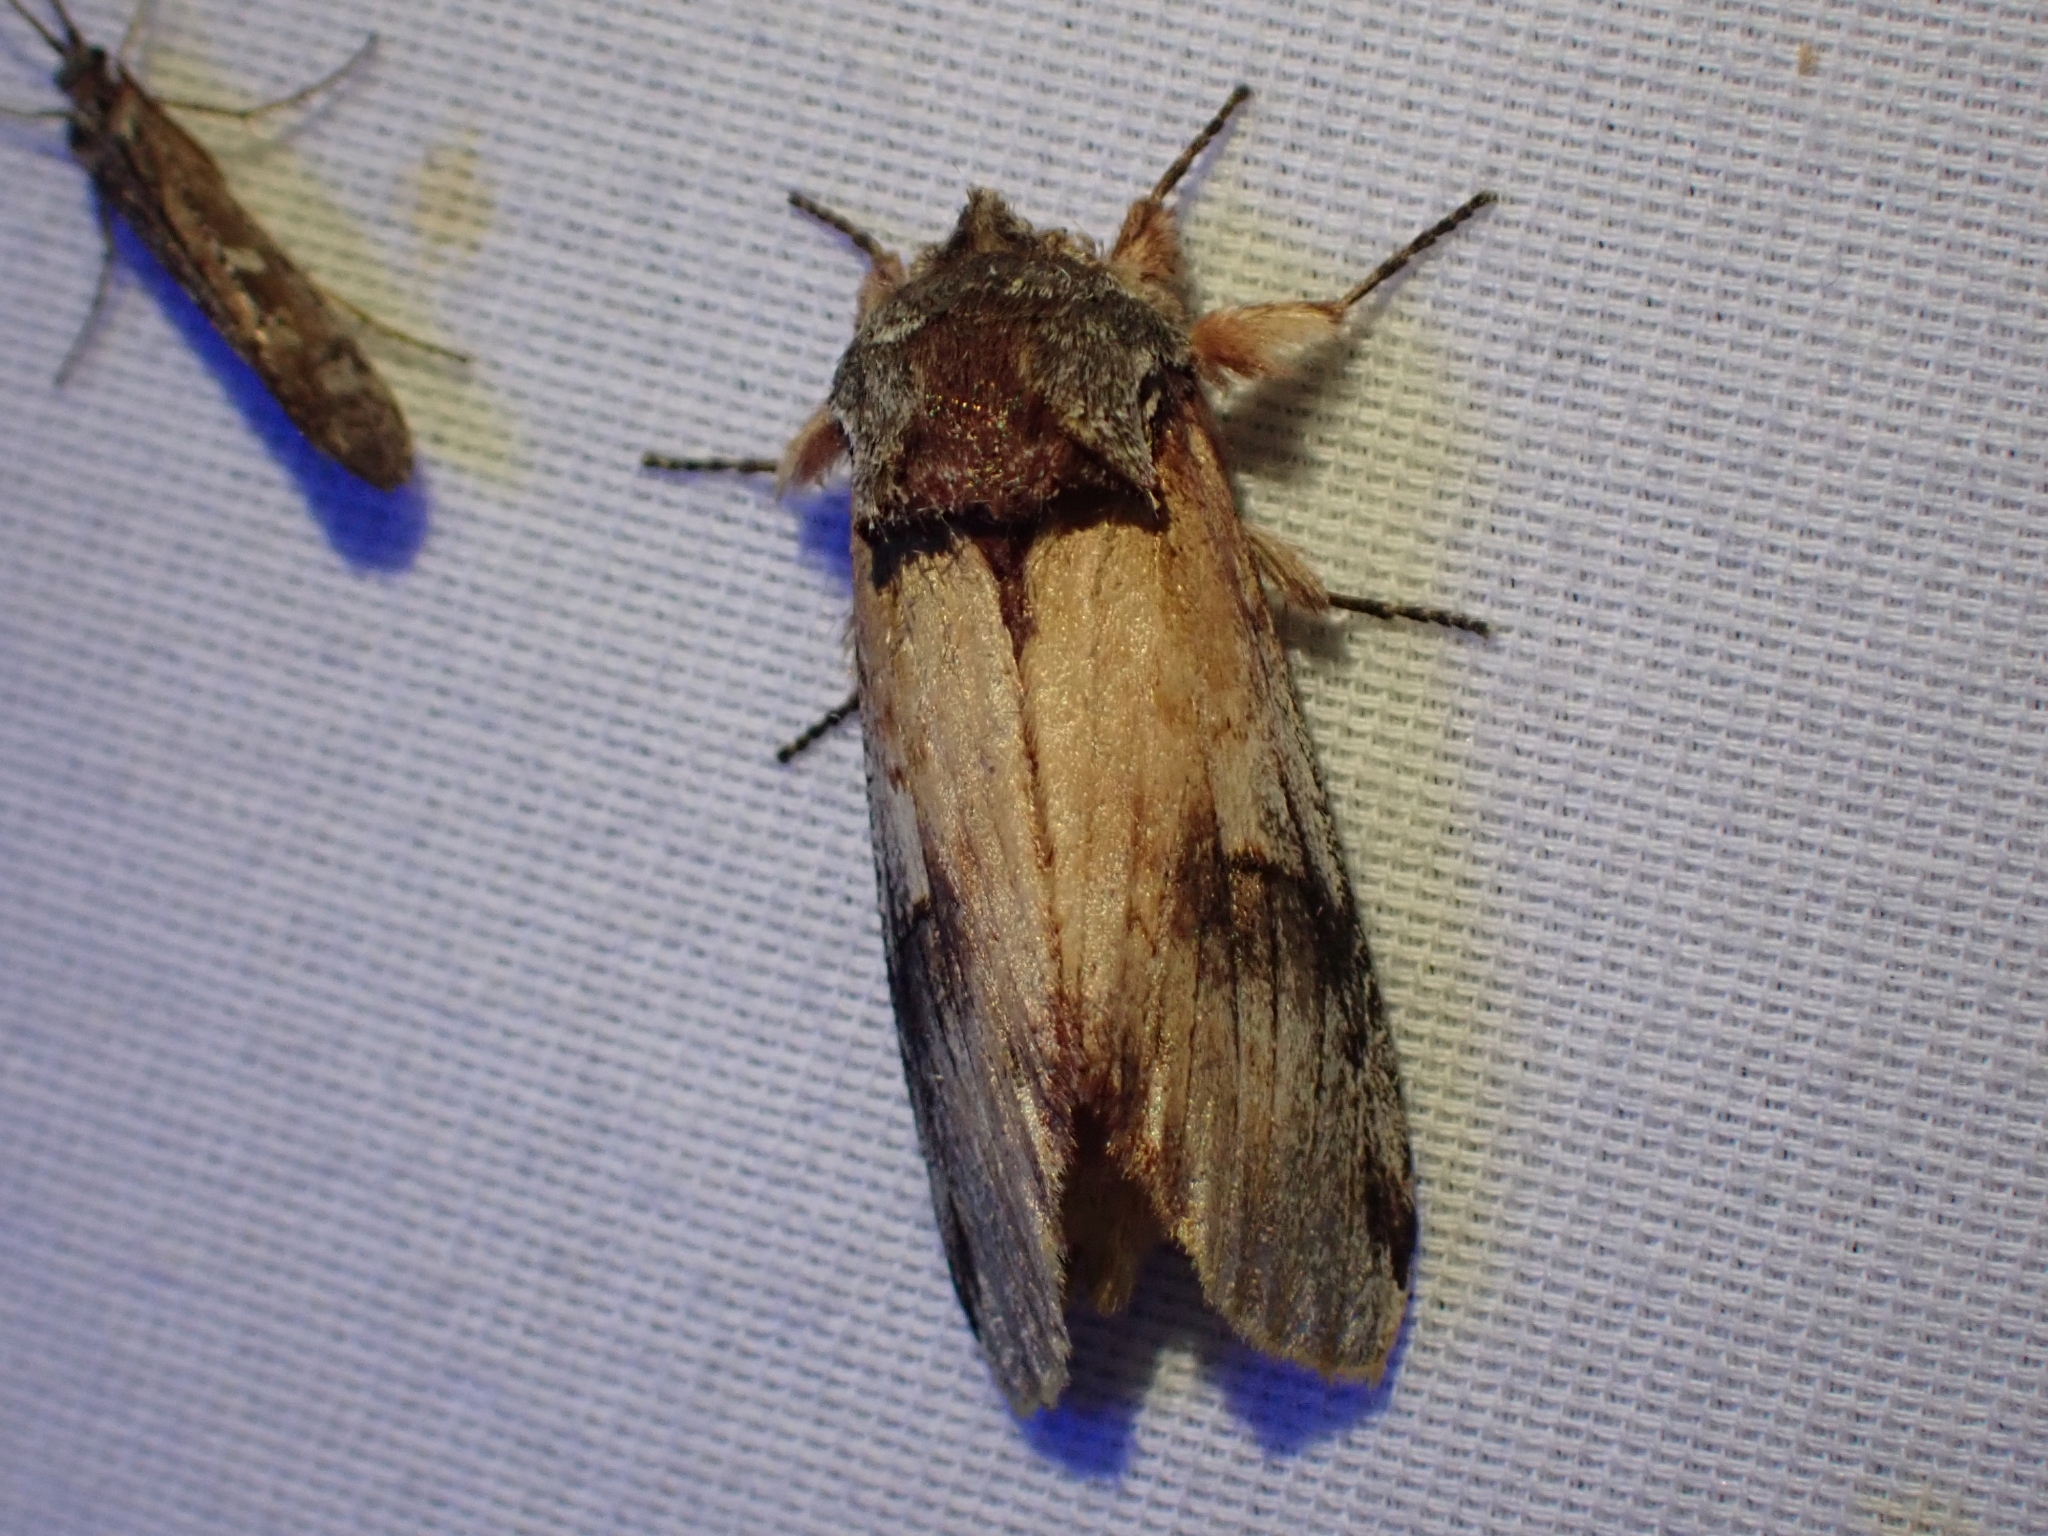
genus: Ianassa
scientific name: Ianassa
